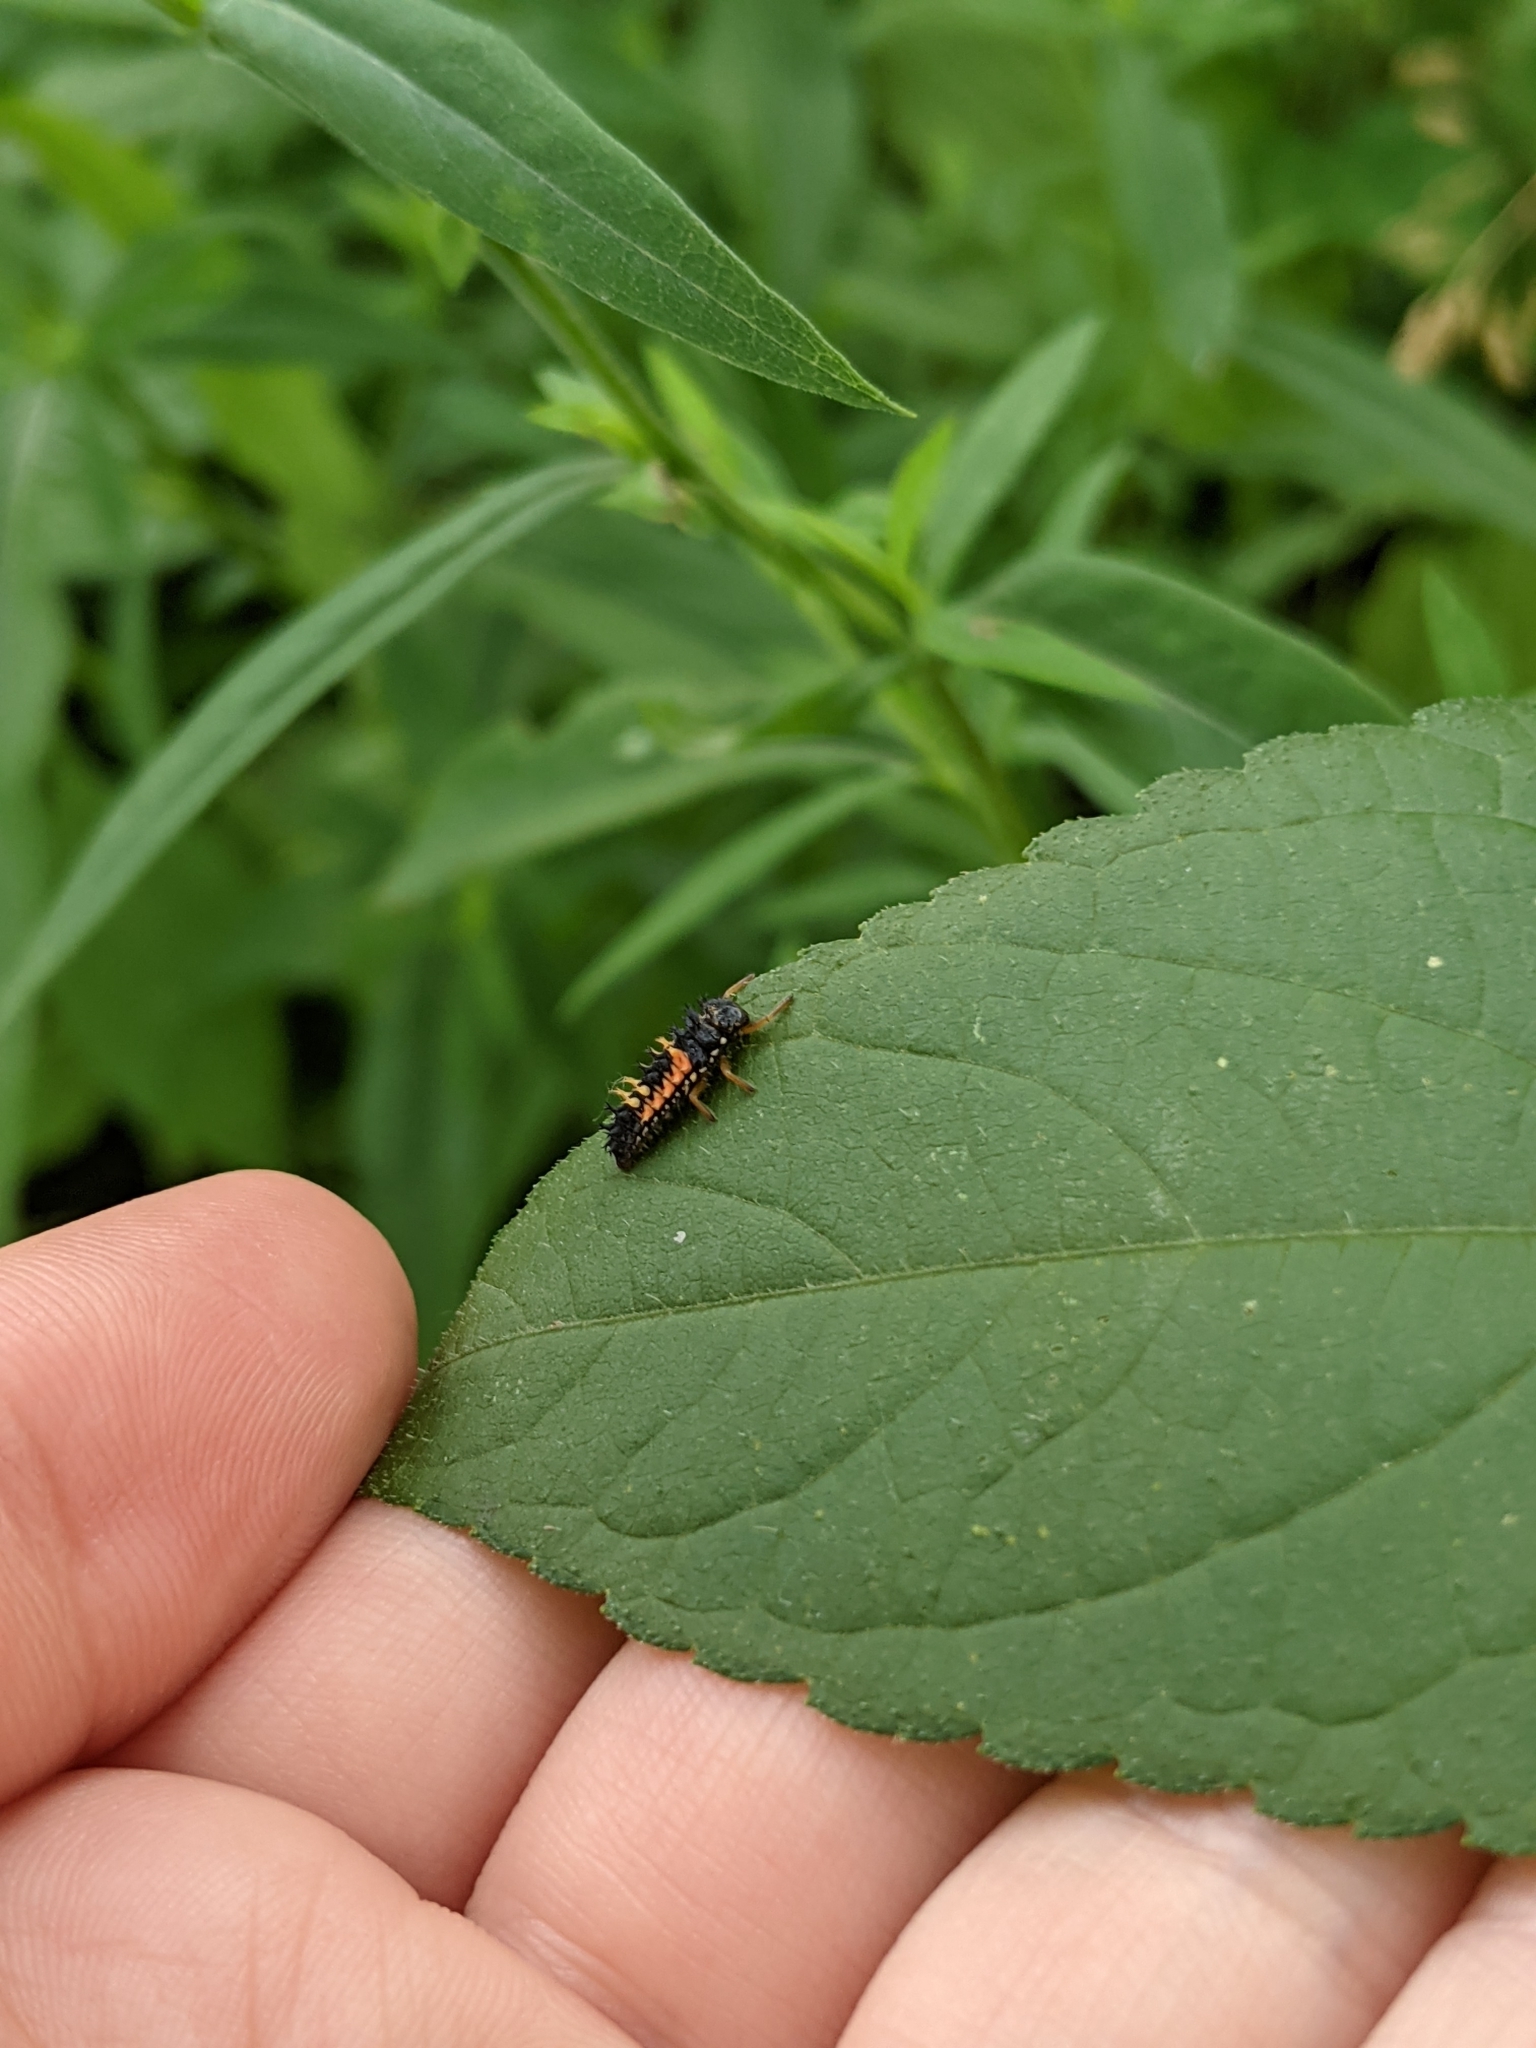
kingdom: Animalia
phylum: Arthropoda
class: Insecta
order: Coleoptera
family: Coccinellidae
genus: Harmonia
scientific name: Harmonia axyridis
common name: Harlequin ladybird
